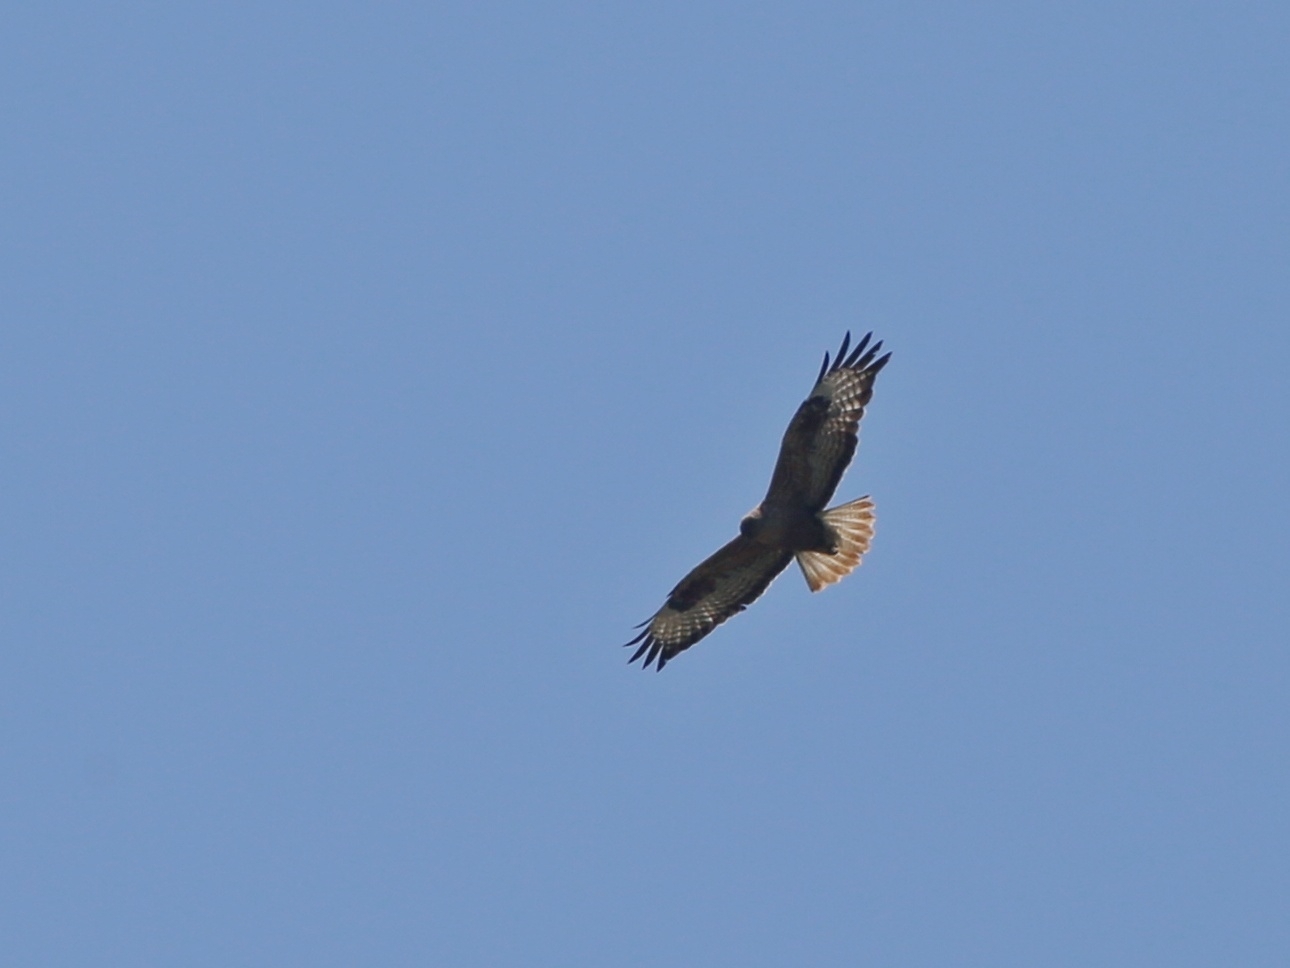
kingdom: Animalia
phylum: Chordata
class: Aves
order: Accipitriformes
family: Accipitridae
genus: Buteo
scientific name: Buteo rufinus
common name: Long-legged buzzard
